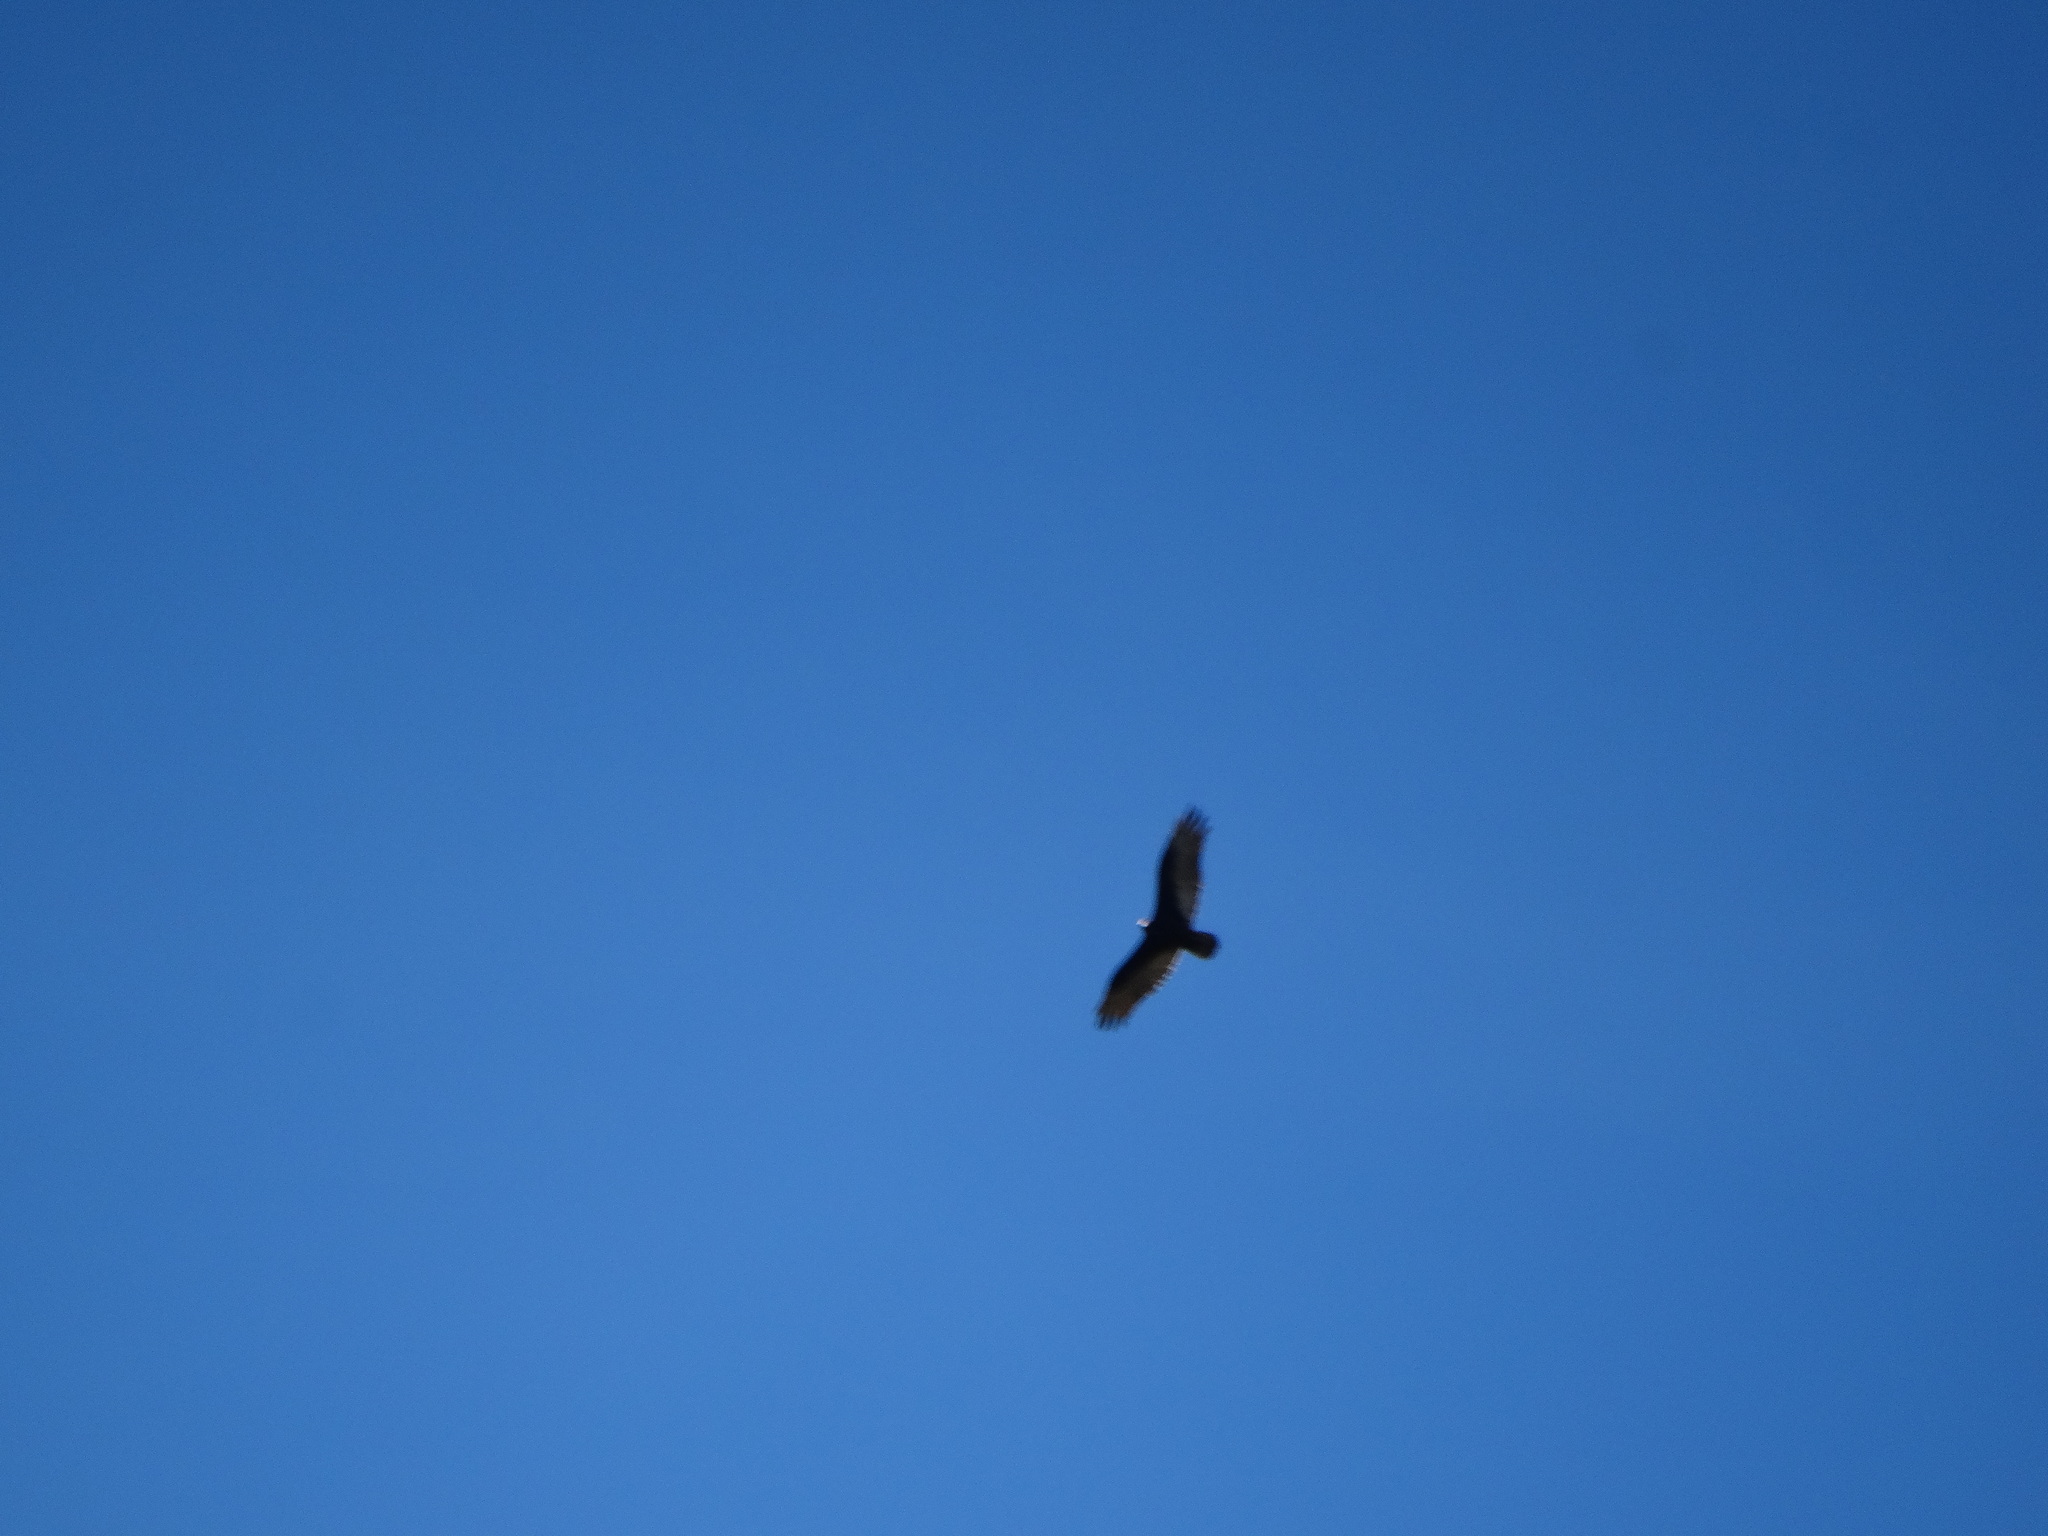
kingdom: Animalia
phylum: Chordata
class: Aves
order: Accipitriformes
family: Cathartidae
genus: Cathartes
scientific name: Cathartes aura
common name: Turkey vulture
